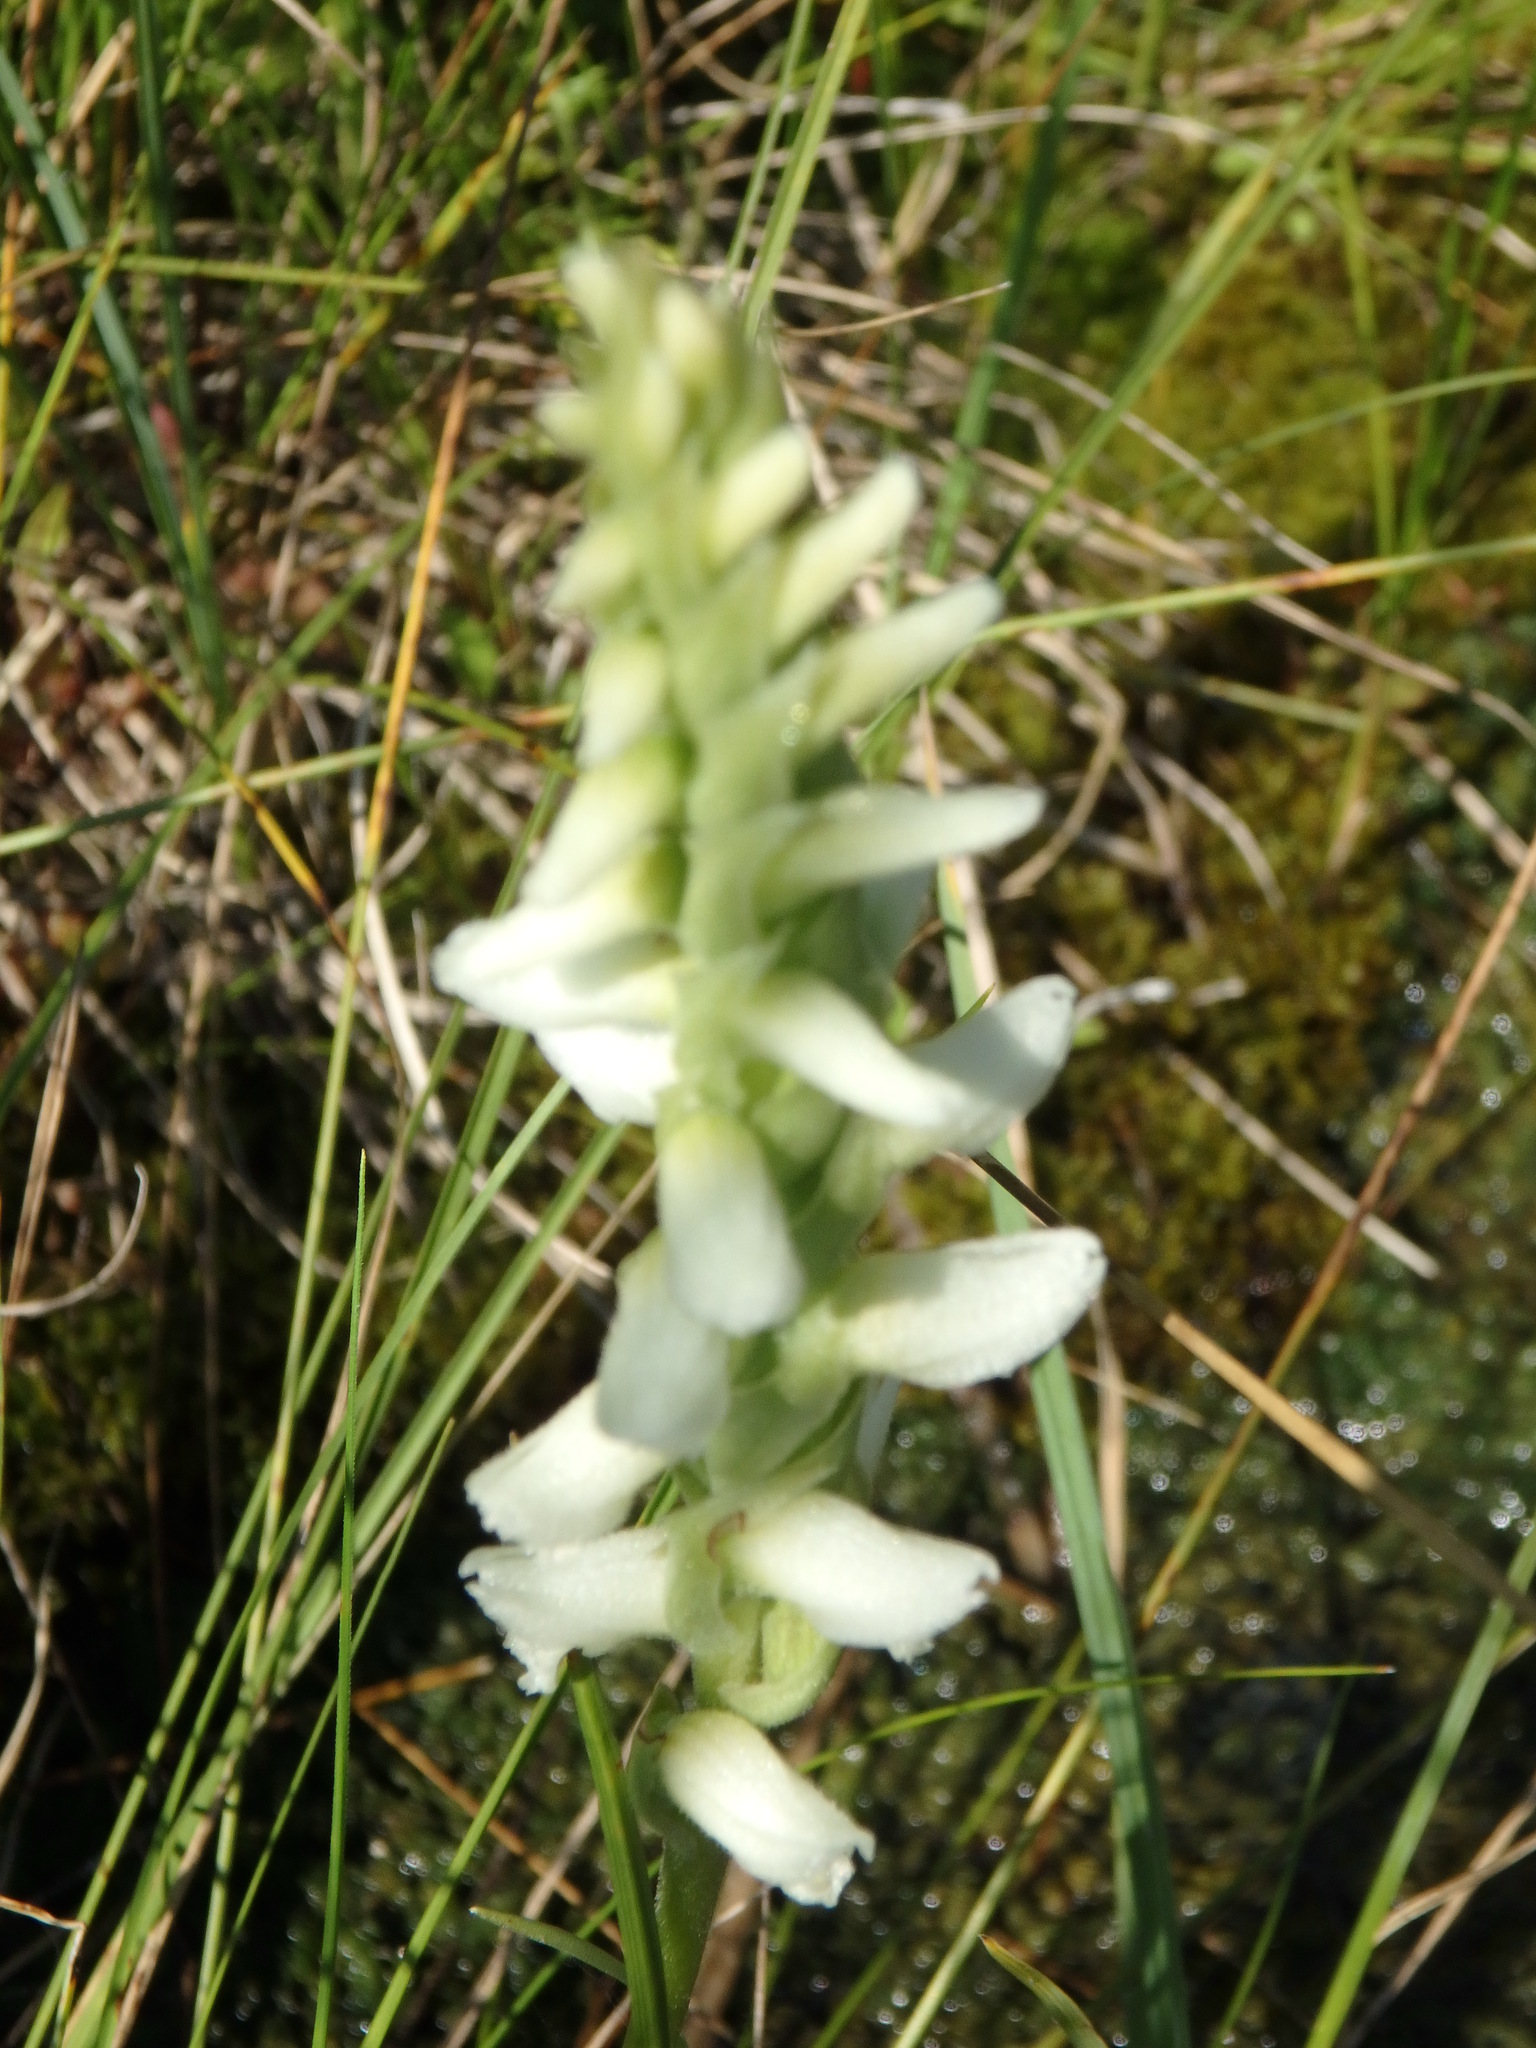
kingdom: Plantae
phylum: Tracheophyta
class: Liliopsida
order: Asparagales
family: Orchidaceae
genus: Spiranthes
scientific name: Spiranthes romanzoffiana
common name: Irish lady's-tresses
